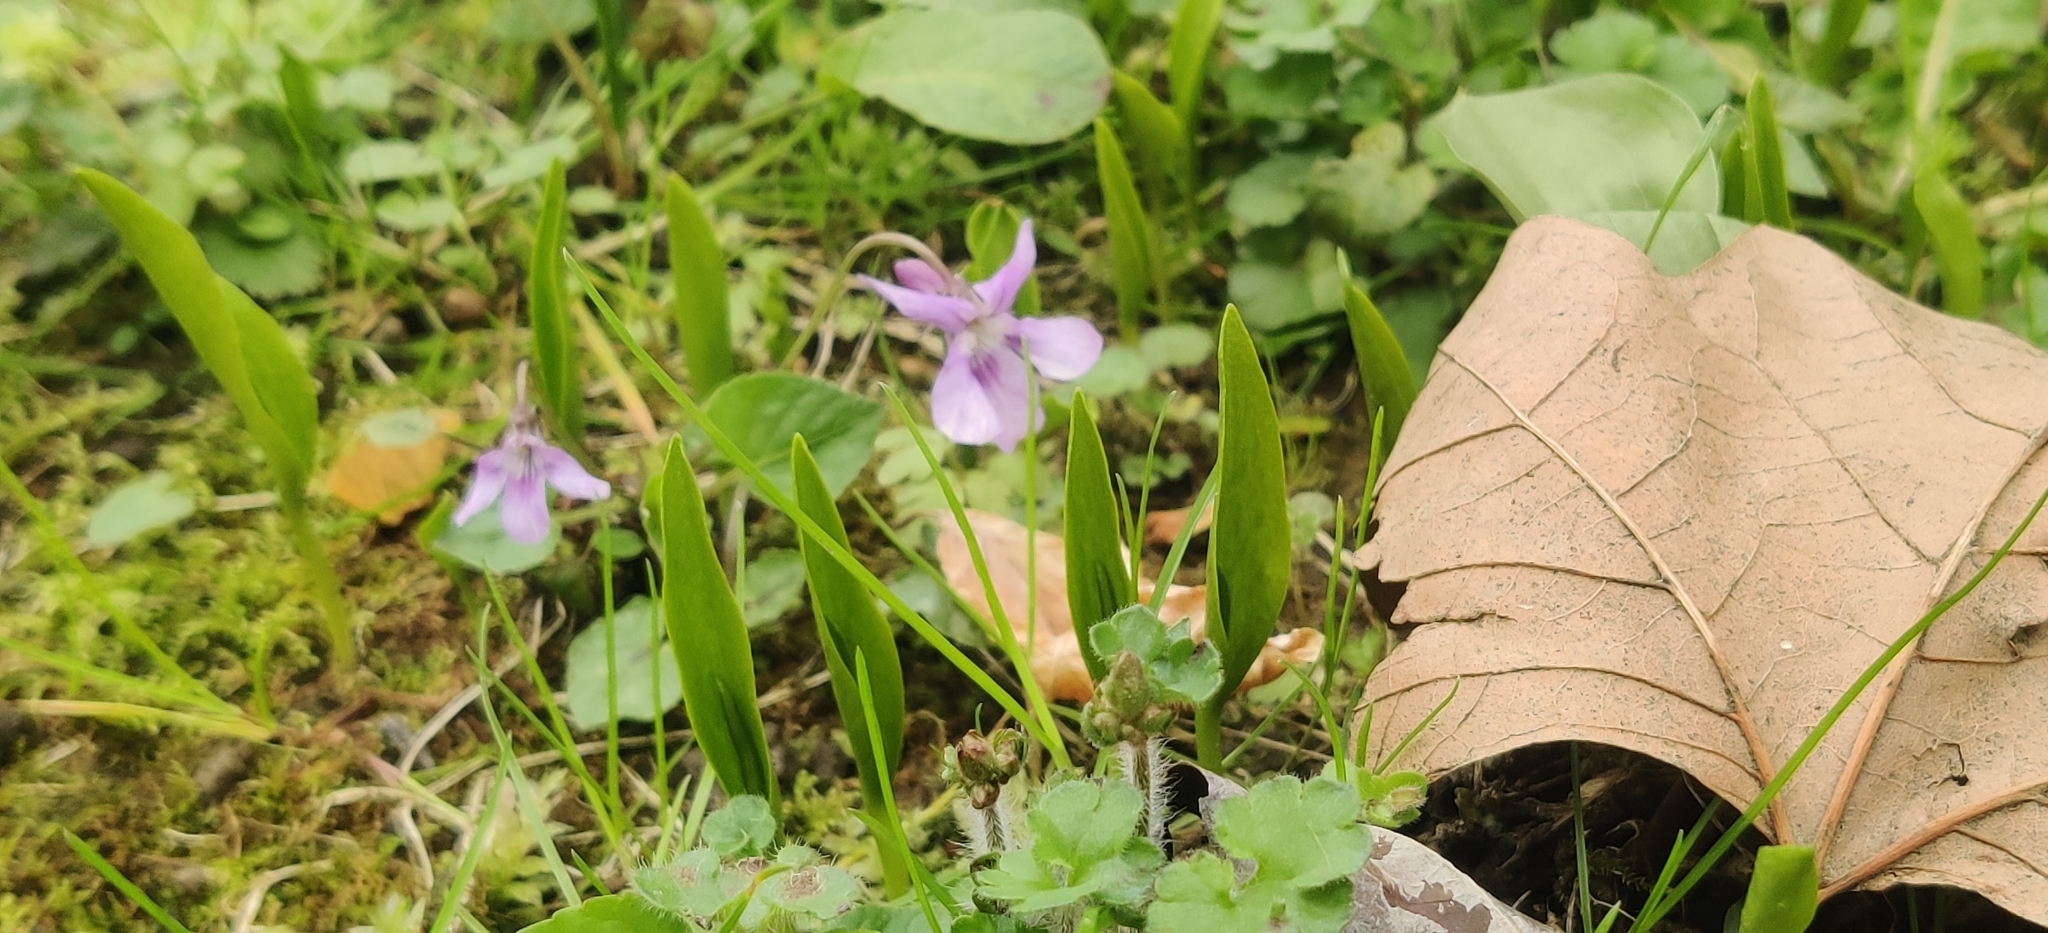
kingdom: Plantae
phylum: Tracheophyta
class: Polypodiopsida
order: Ophioglossales
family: Ophioglossaceae
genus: Ophioglossum
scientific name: Ophioglossum vulgatum
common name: Adder's-tongue
